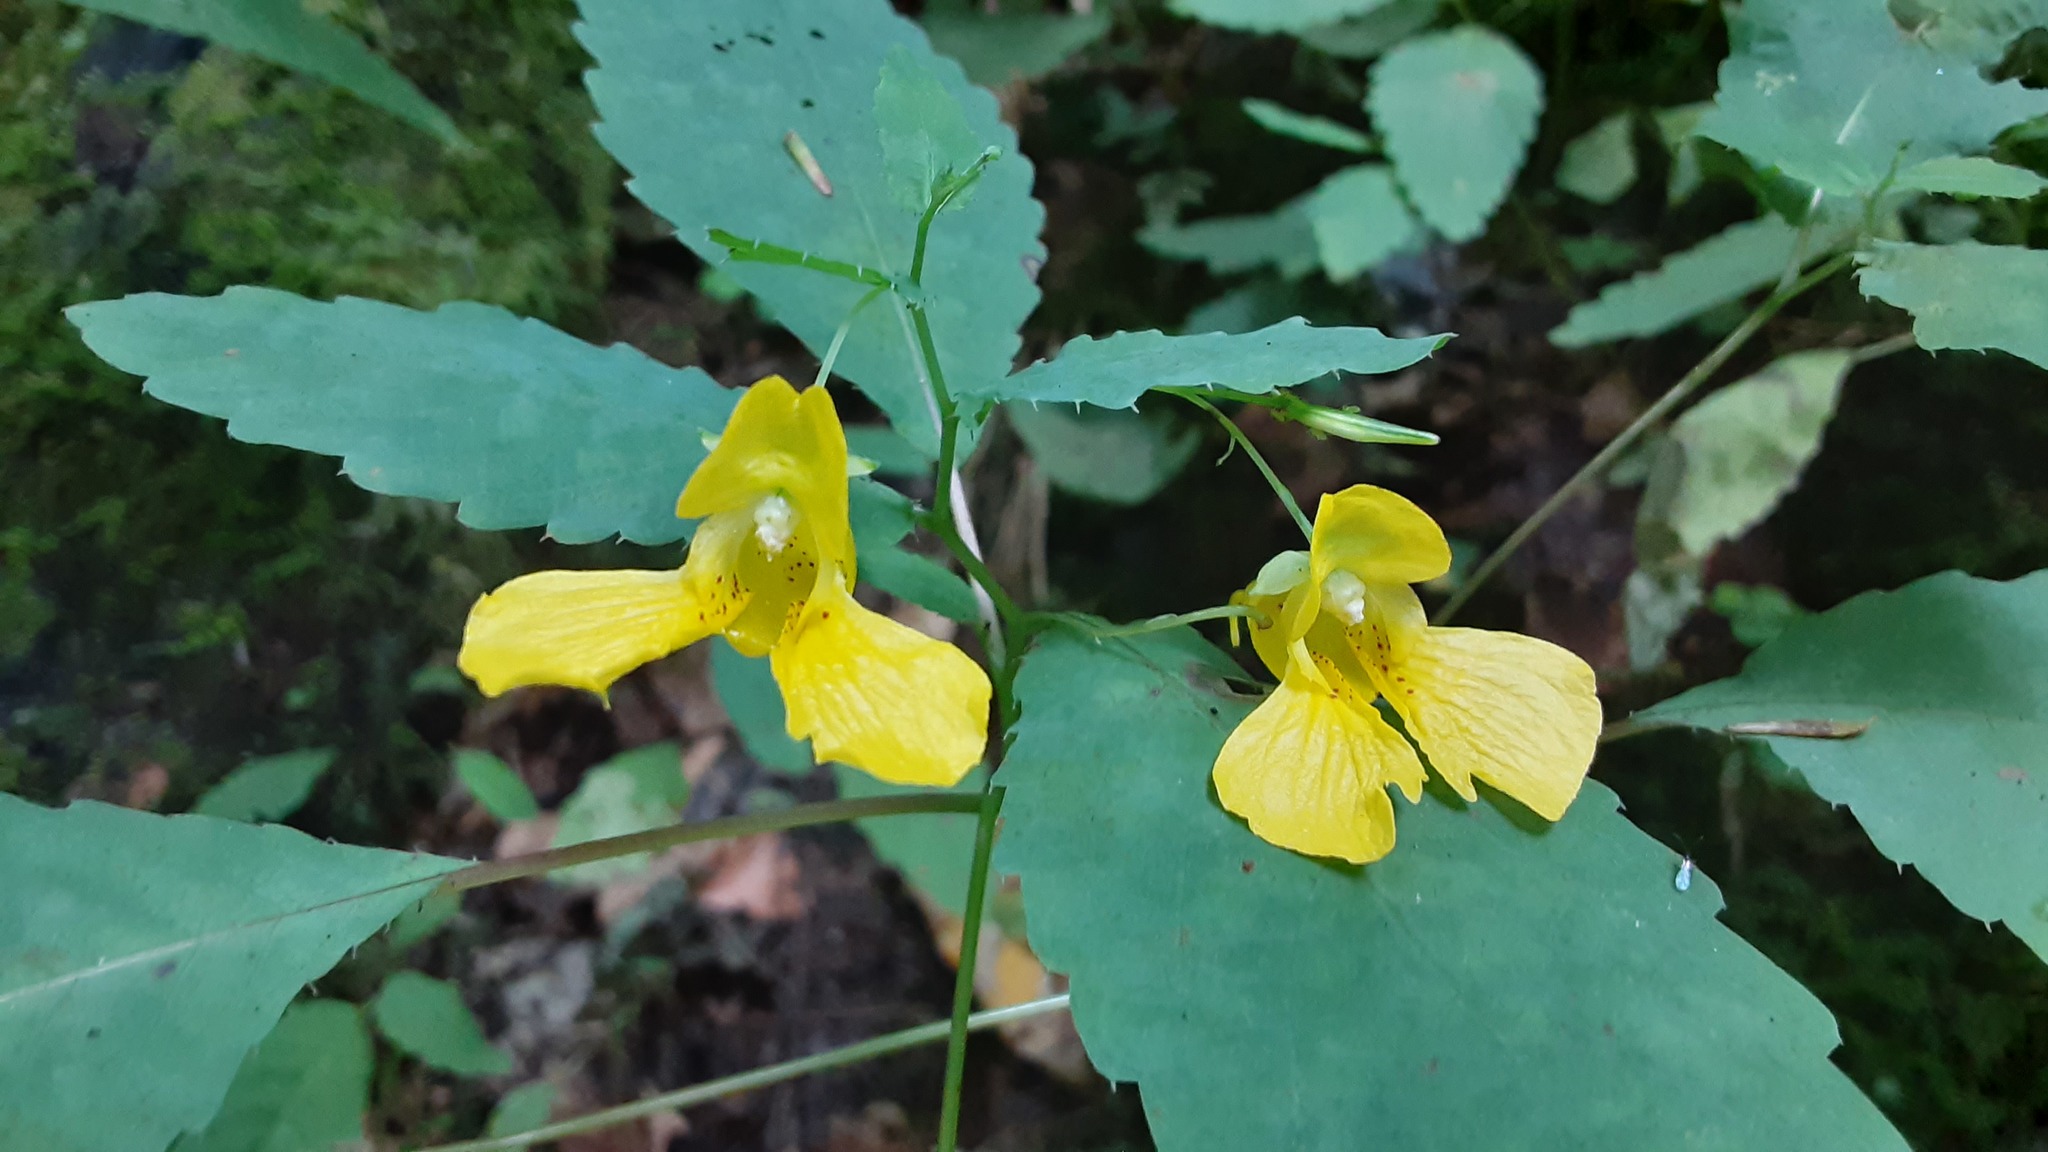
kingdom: Plantae
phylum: Tracheophyta
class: Magnoliopsida
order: Ericales
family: Balsaminaceae
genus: Impatiens
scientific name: Impatiens pallida
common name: Pale snapweed
